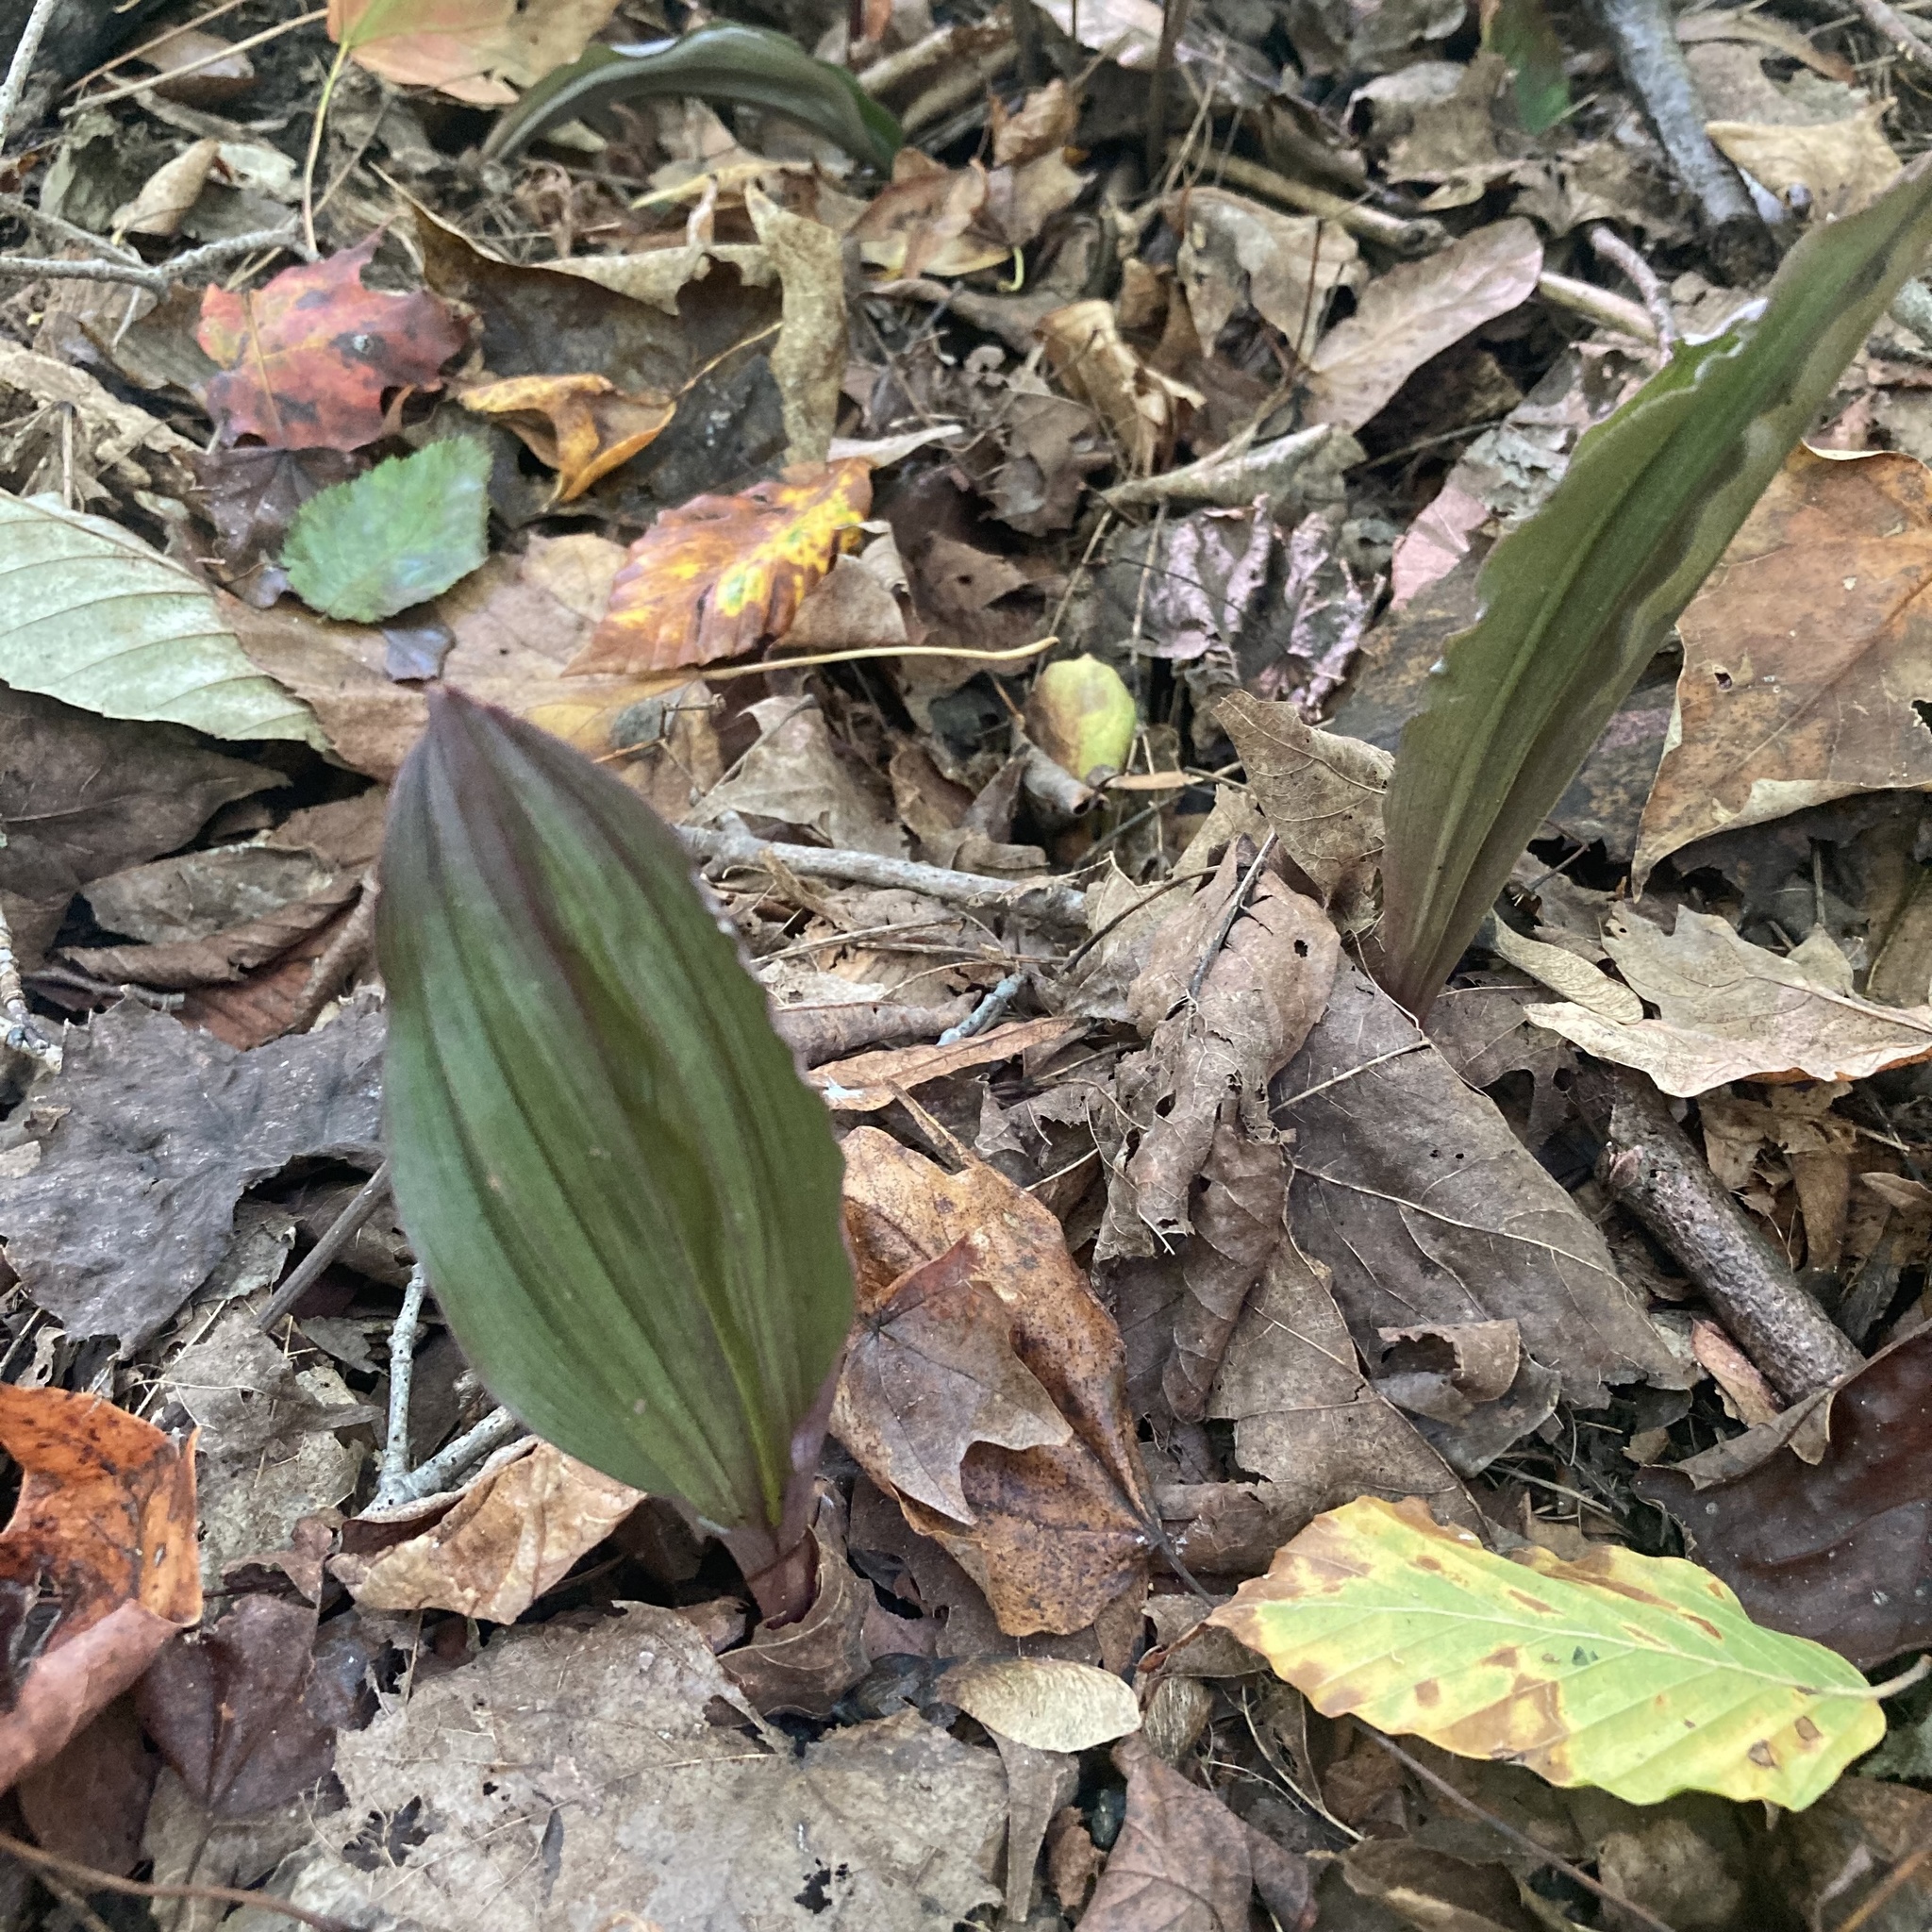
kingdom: Plantae
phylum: Tracheophyta
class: Liliopsida
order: Asparagales
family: Orchidaceae
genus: Aplectrum
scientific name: Aplectrum hyemale
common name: Adam-and-eve
